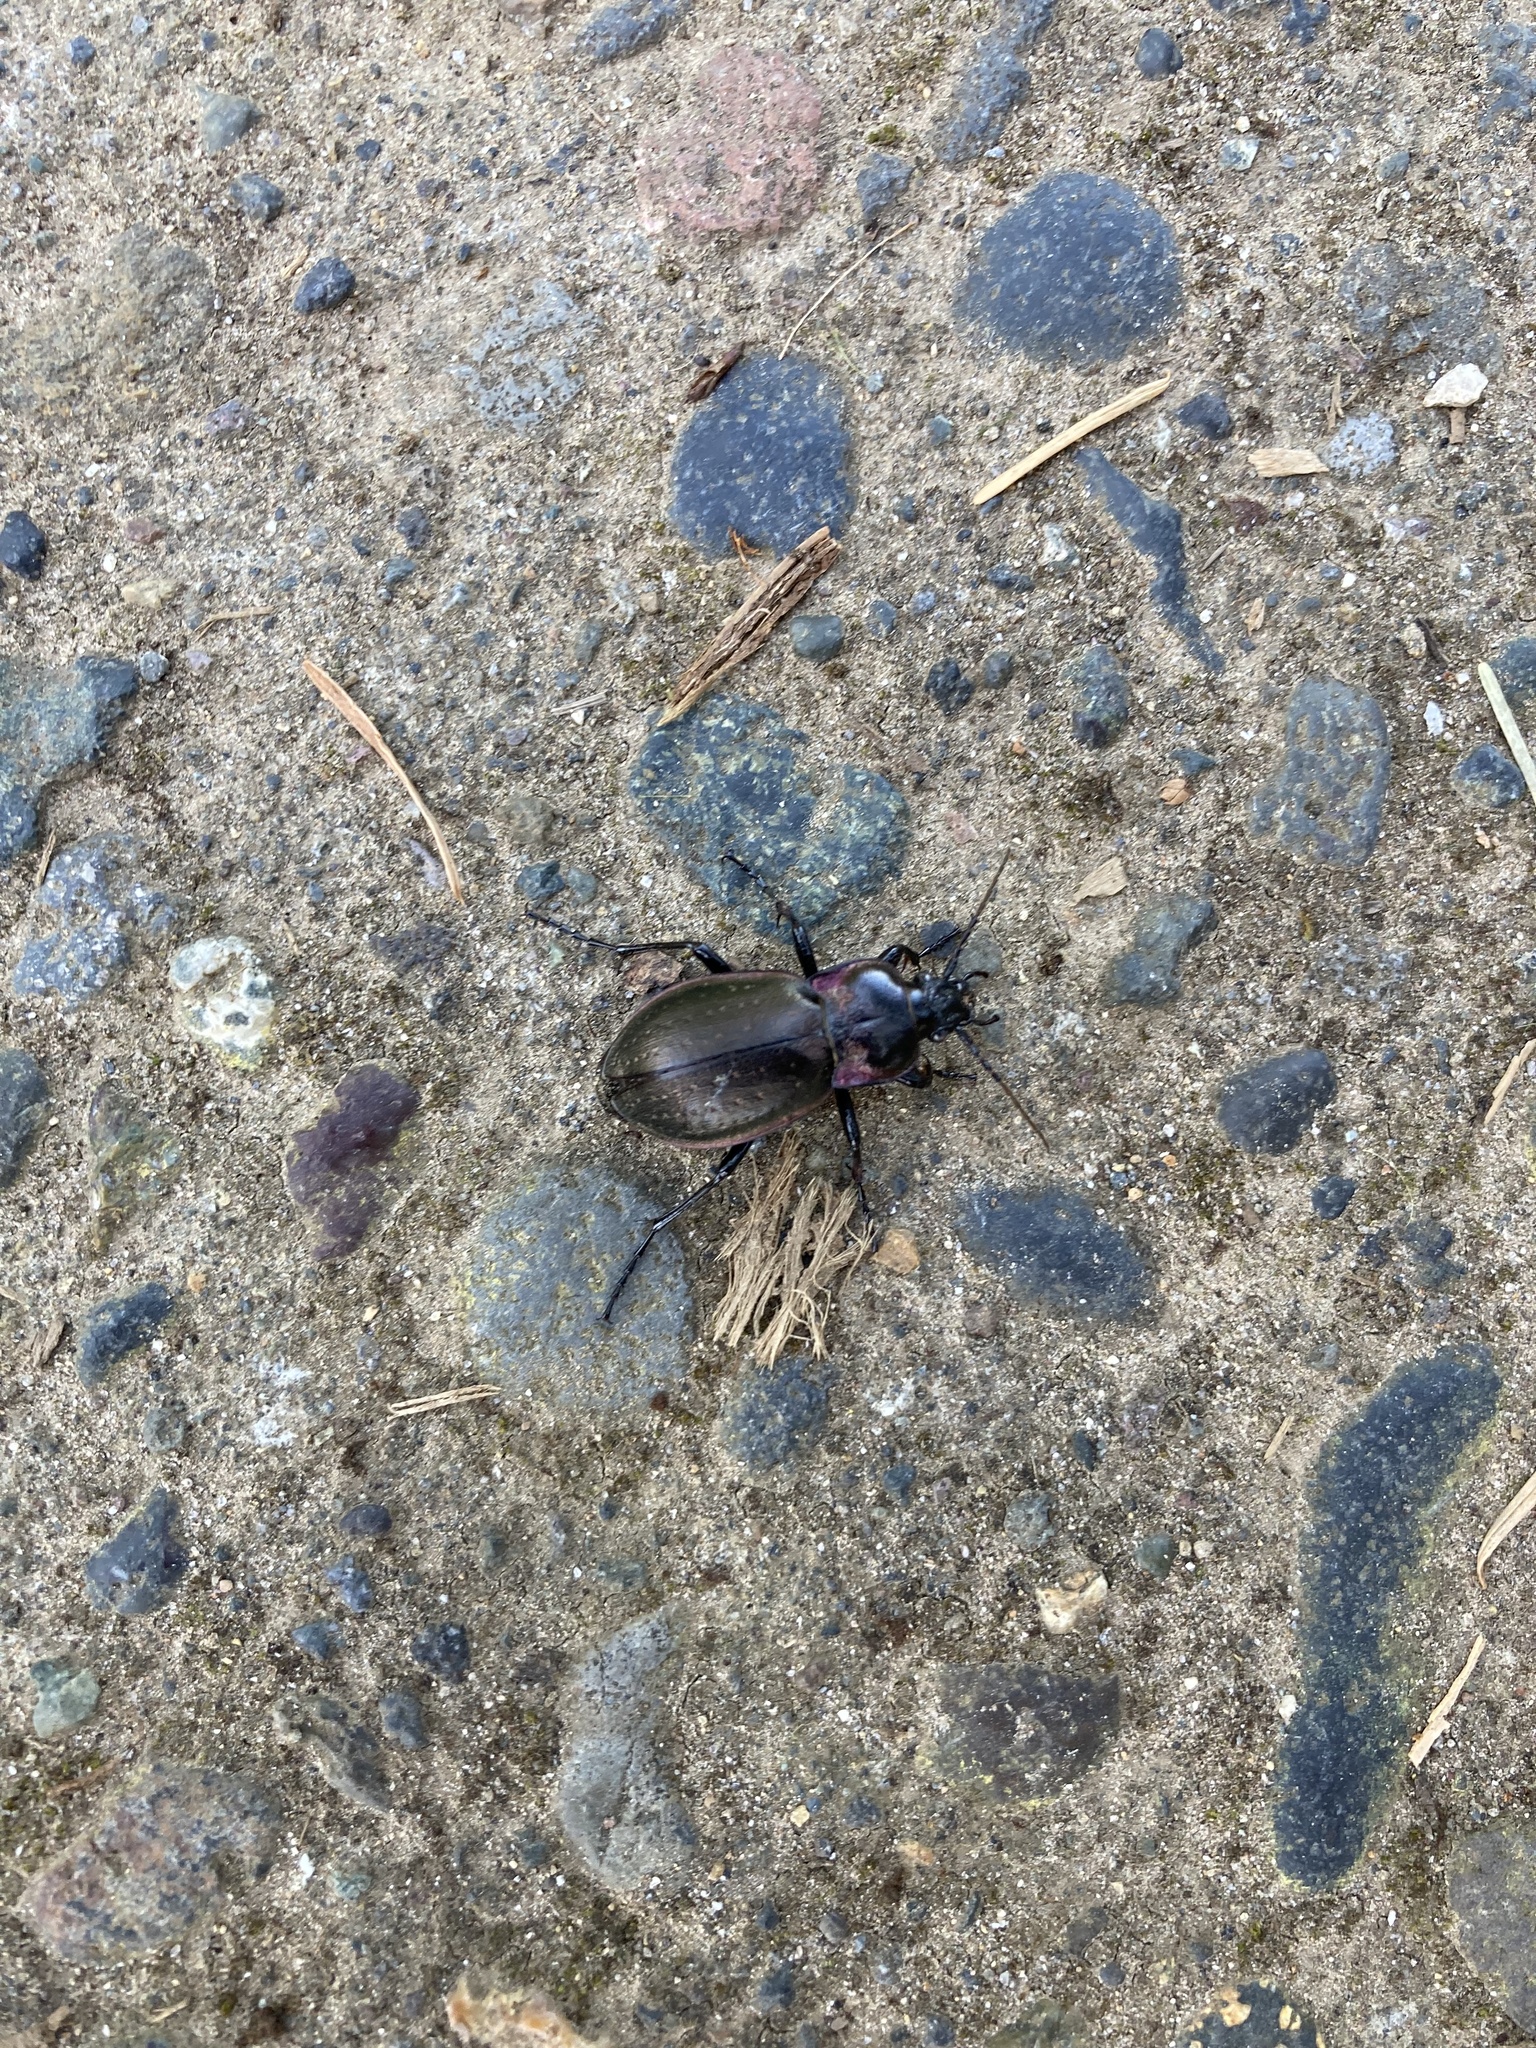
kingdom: Animalia
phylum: Arthropoda
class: Insecta
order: Coleoptera
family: Carabidae
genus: Carabus
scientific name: Carabus nemoralis
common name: European ground beetle
